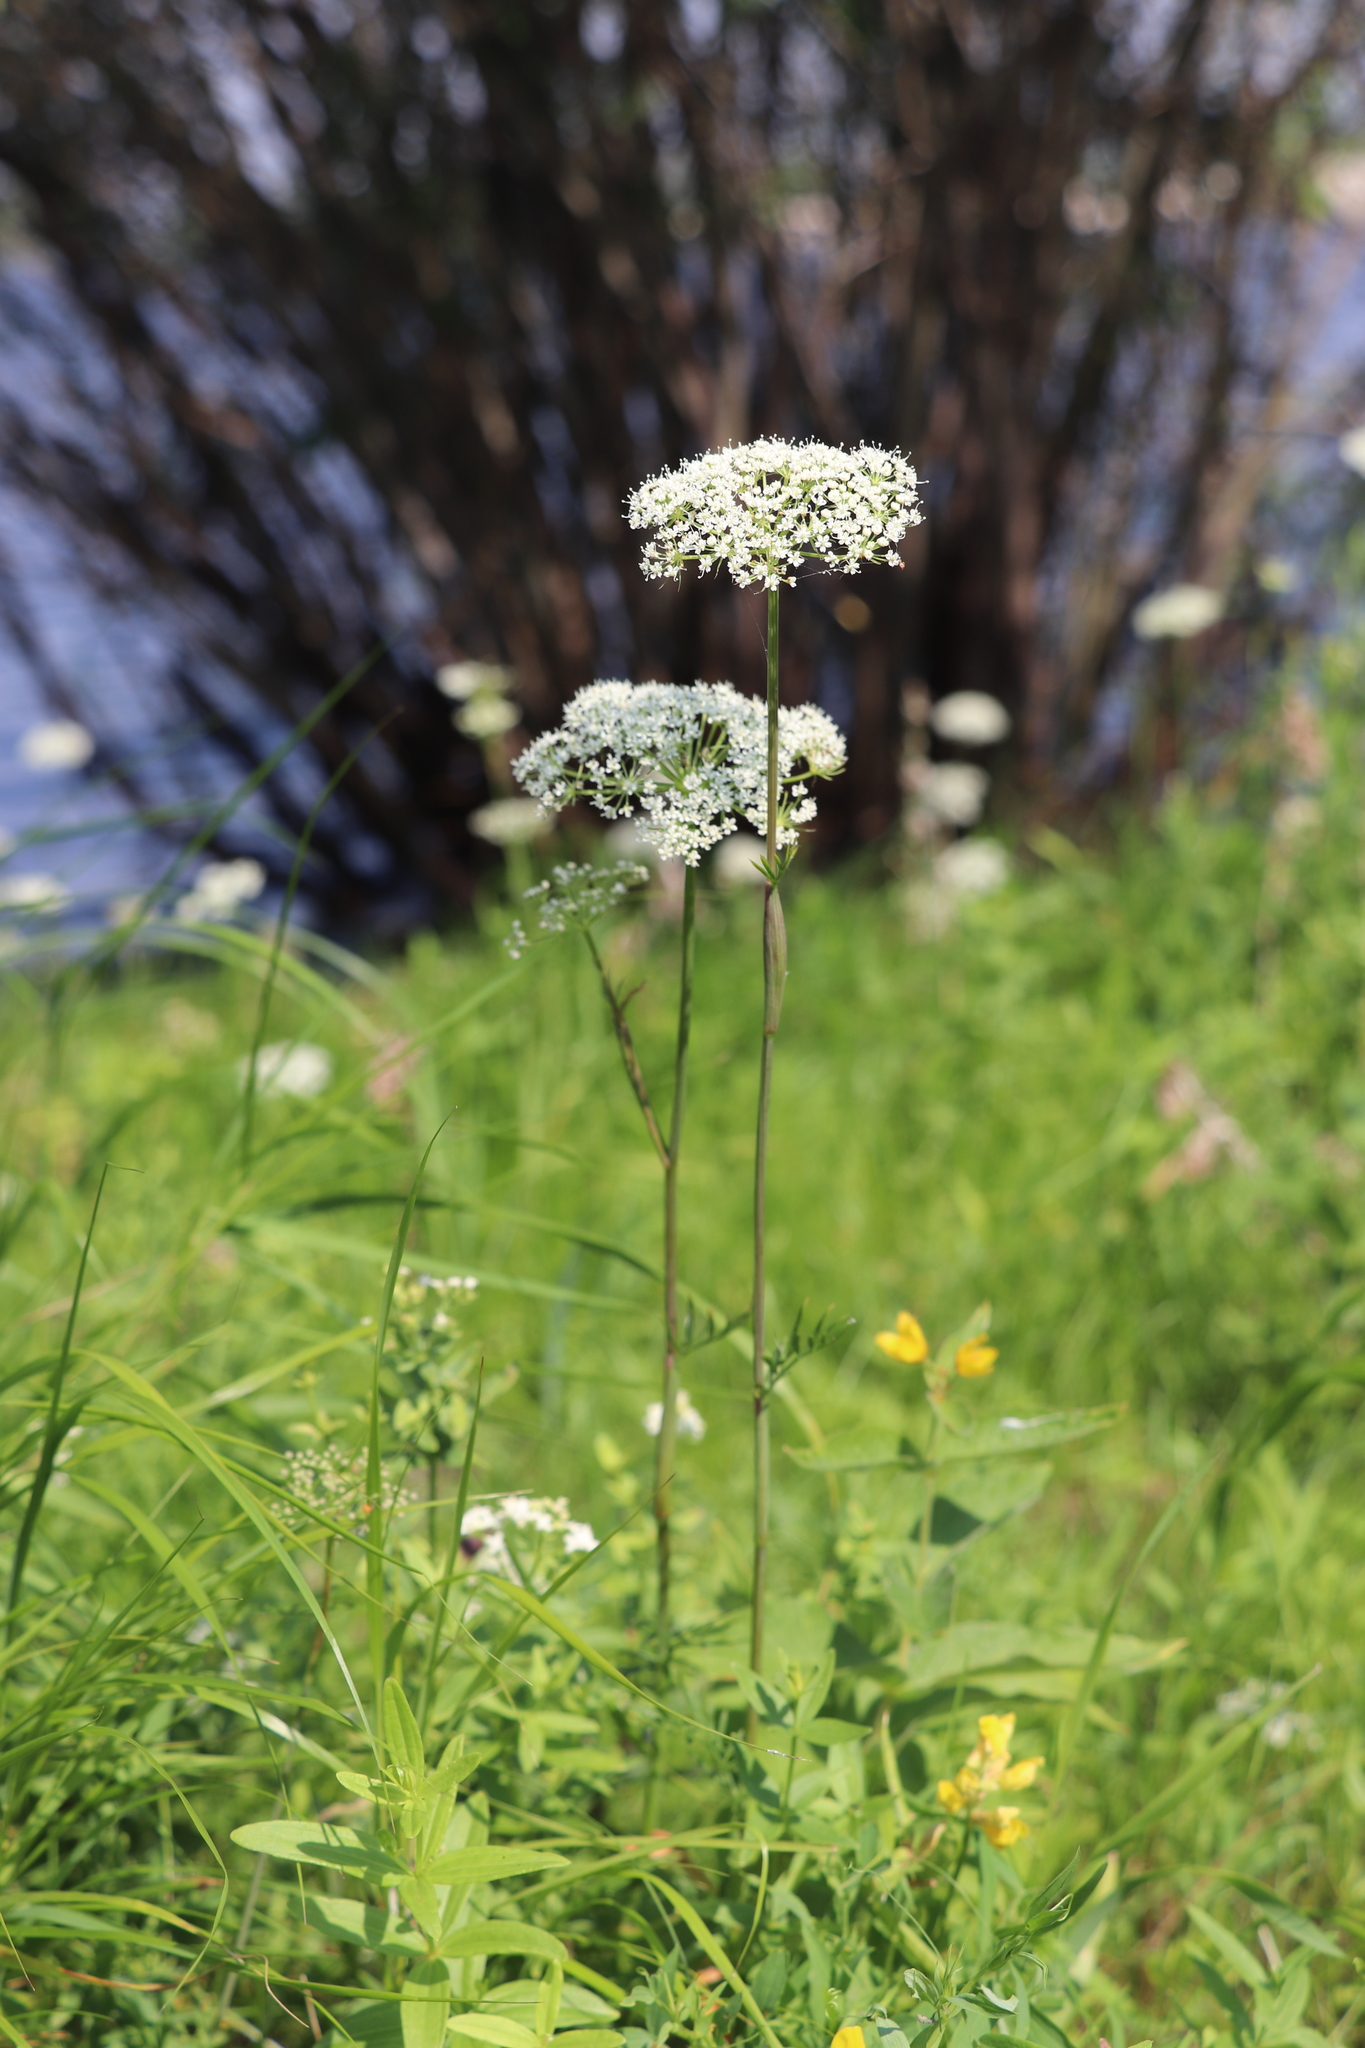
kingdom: Plantae
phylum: Tracheophyta
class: Magnoliopsida
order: Apiales
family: Apiaceae
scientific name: Apiaceae
